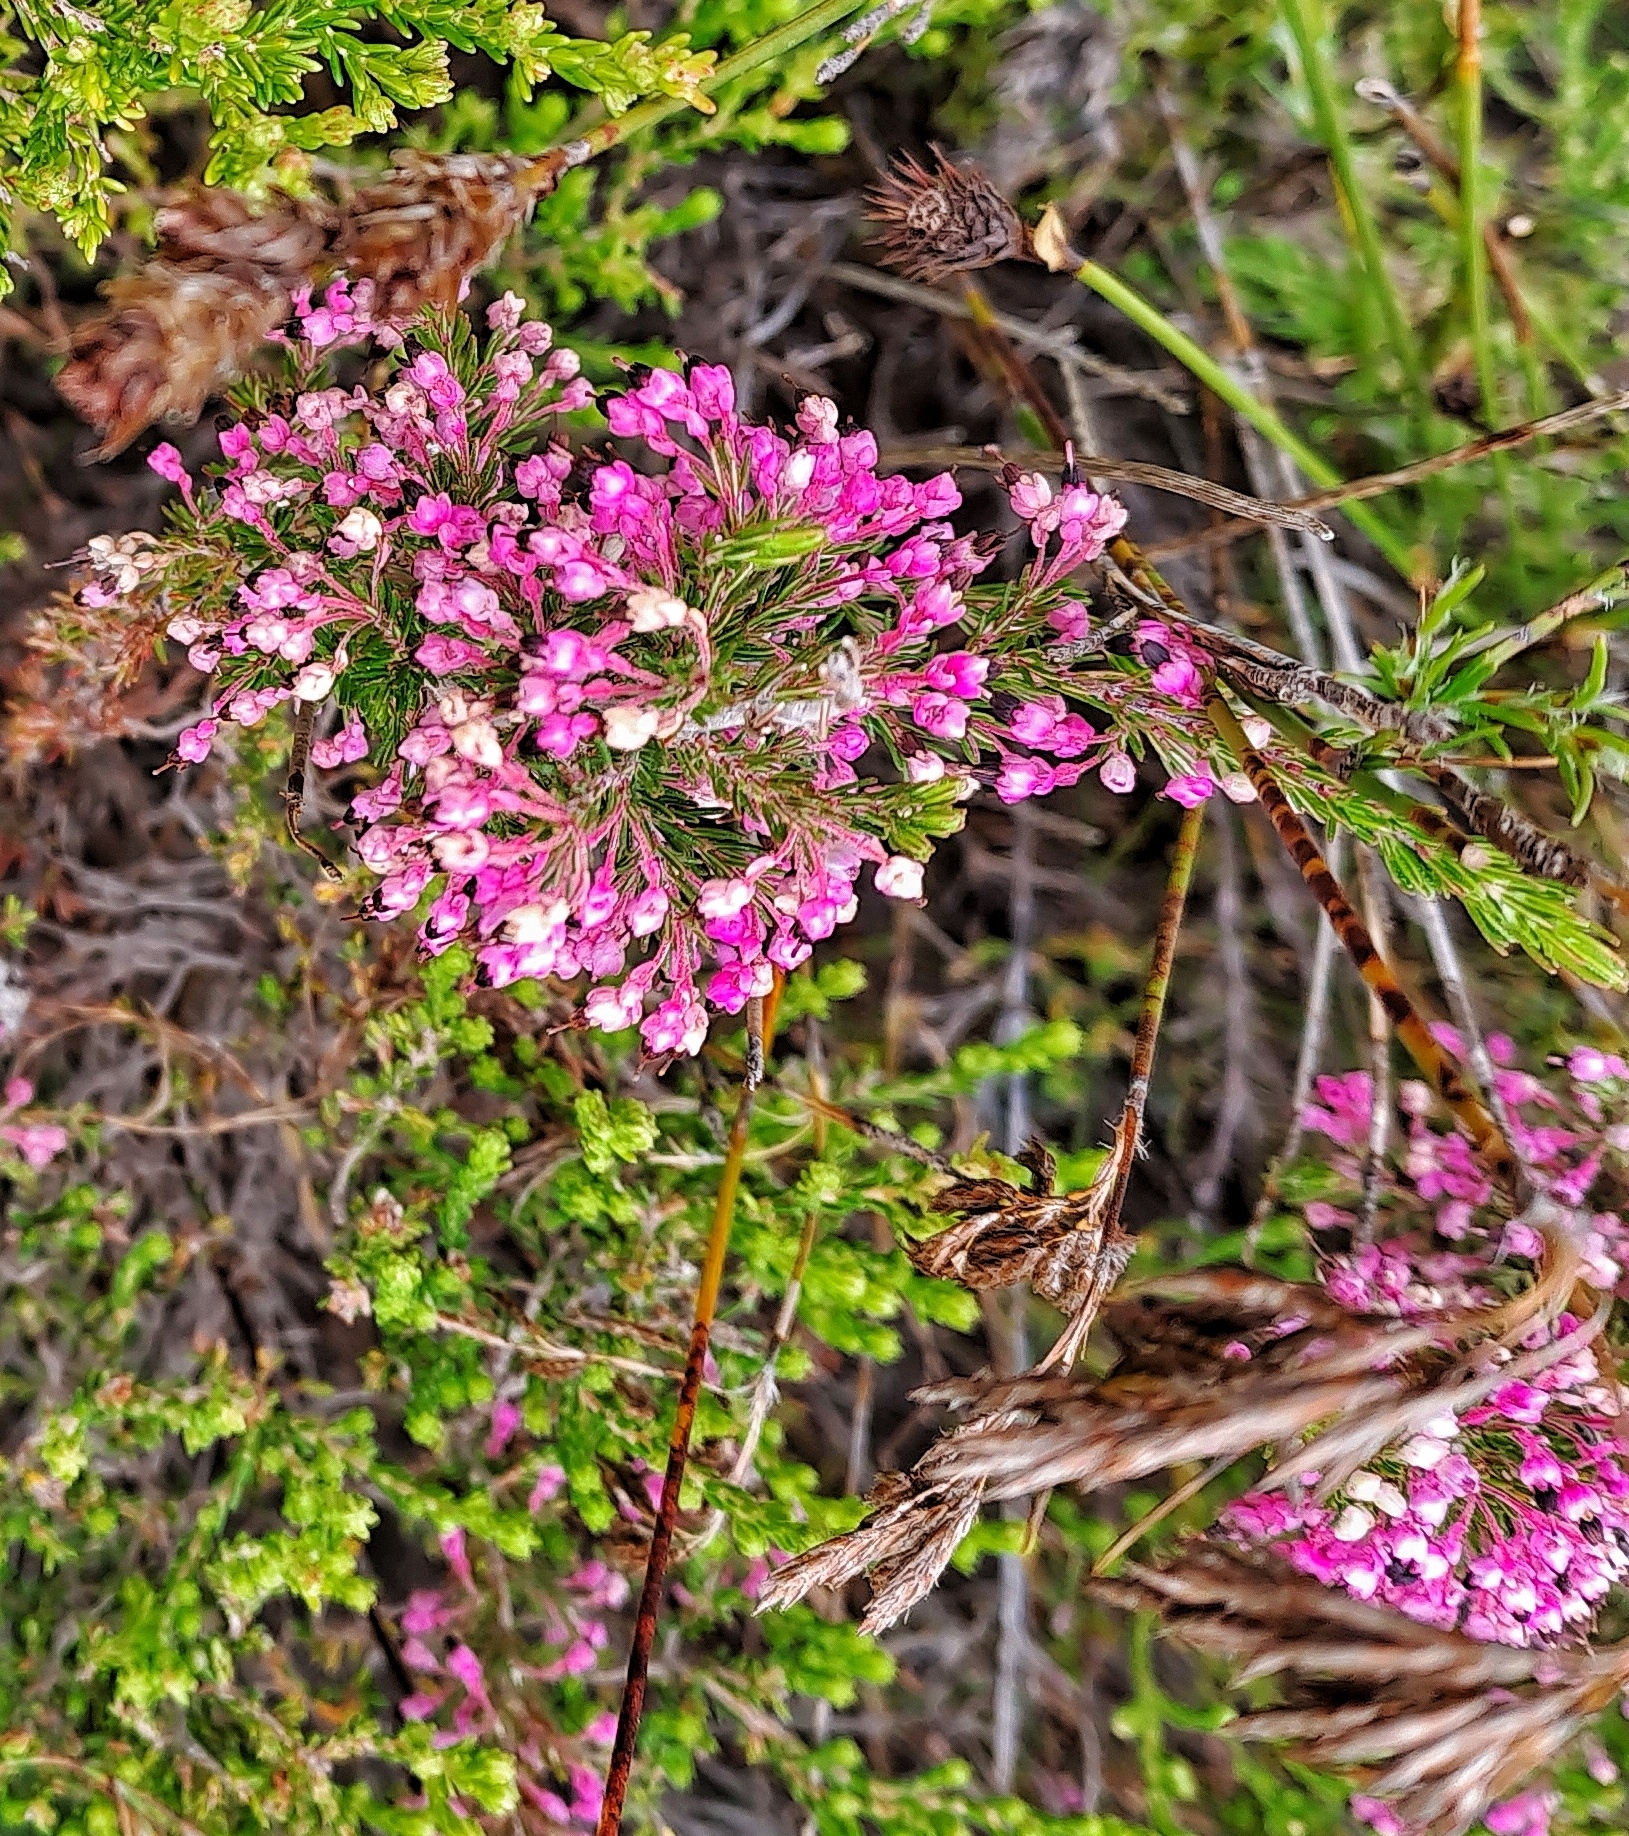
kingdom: Plantae
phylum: Tracheophyta
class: Magnoliopsida
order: Ericales
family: Ericaceae
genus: Erica
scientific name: Erica placentiflora
